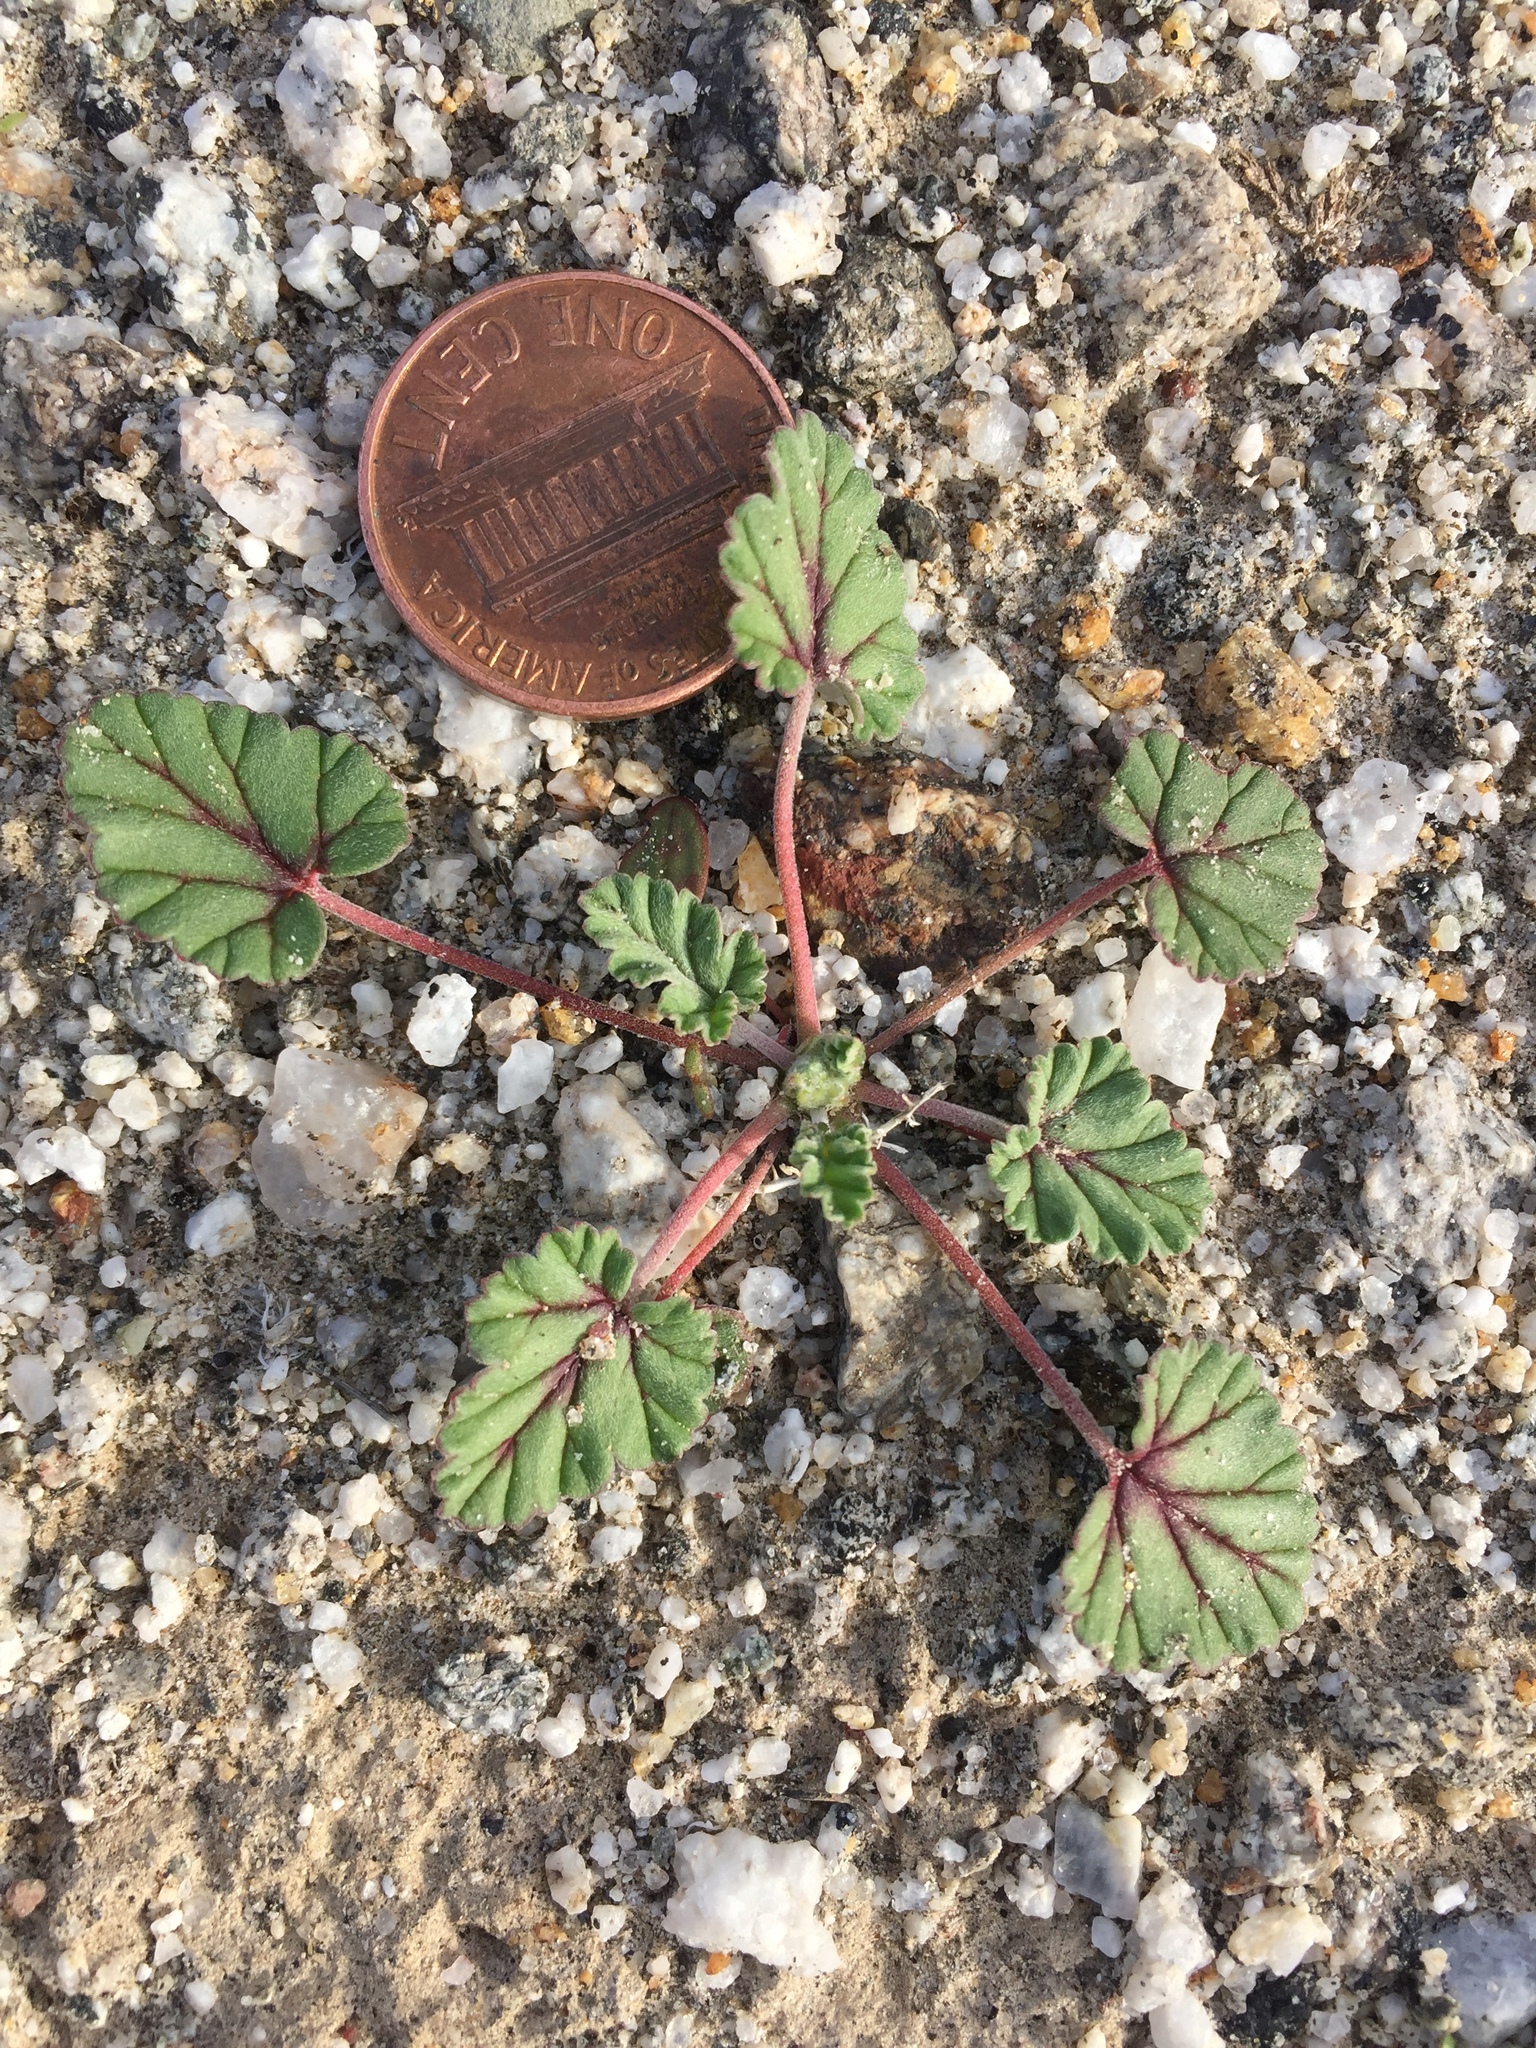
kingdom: Plantae
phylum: Tracheophyta
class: Magnoliopsida
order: Geraniales
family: Geraniaceae
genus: Erodium
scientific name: Erodium texanum
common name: Texas stork's-bill
